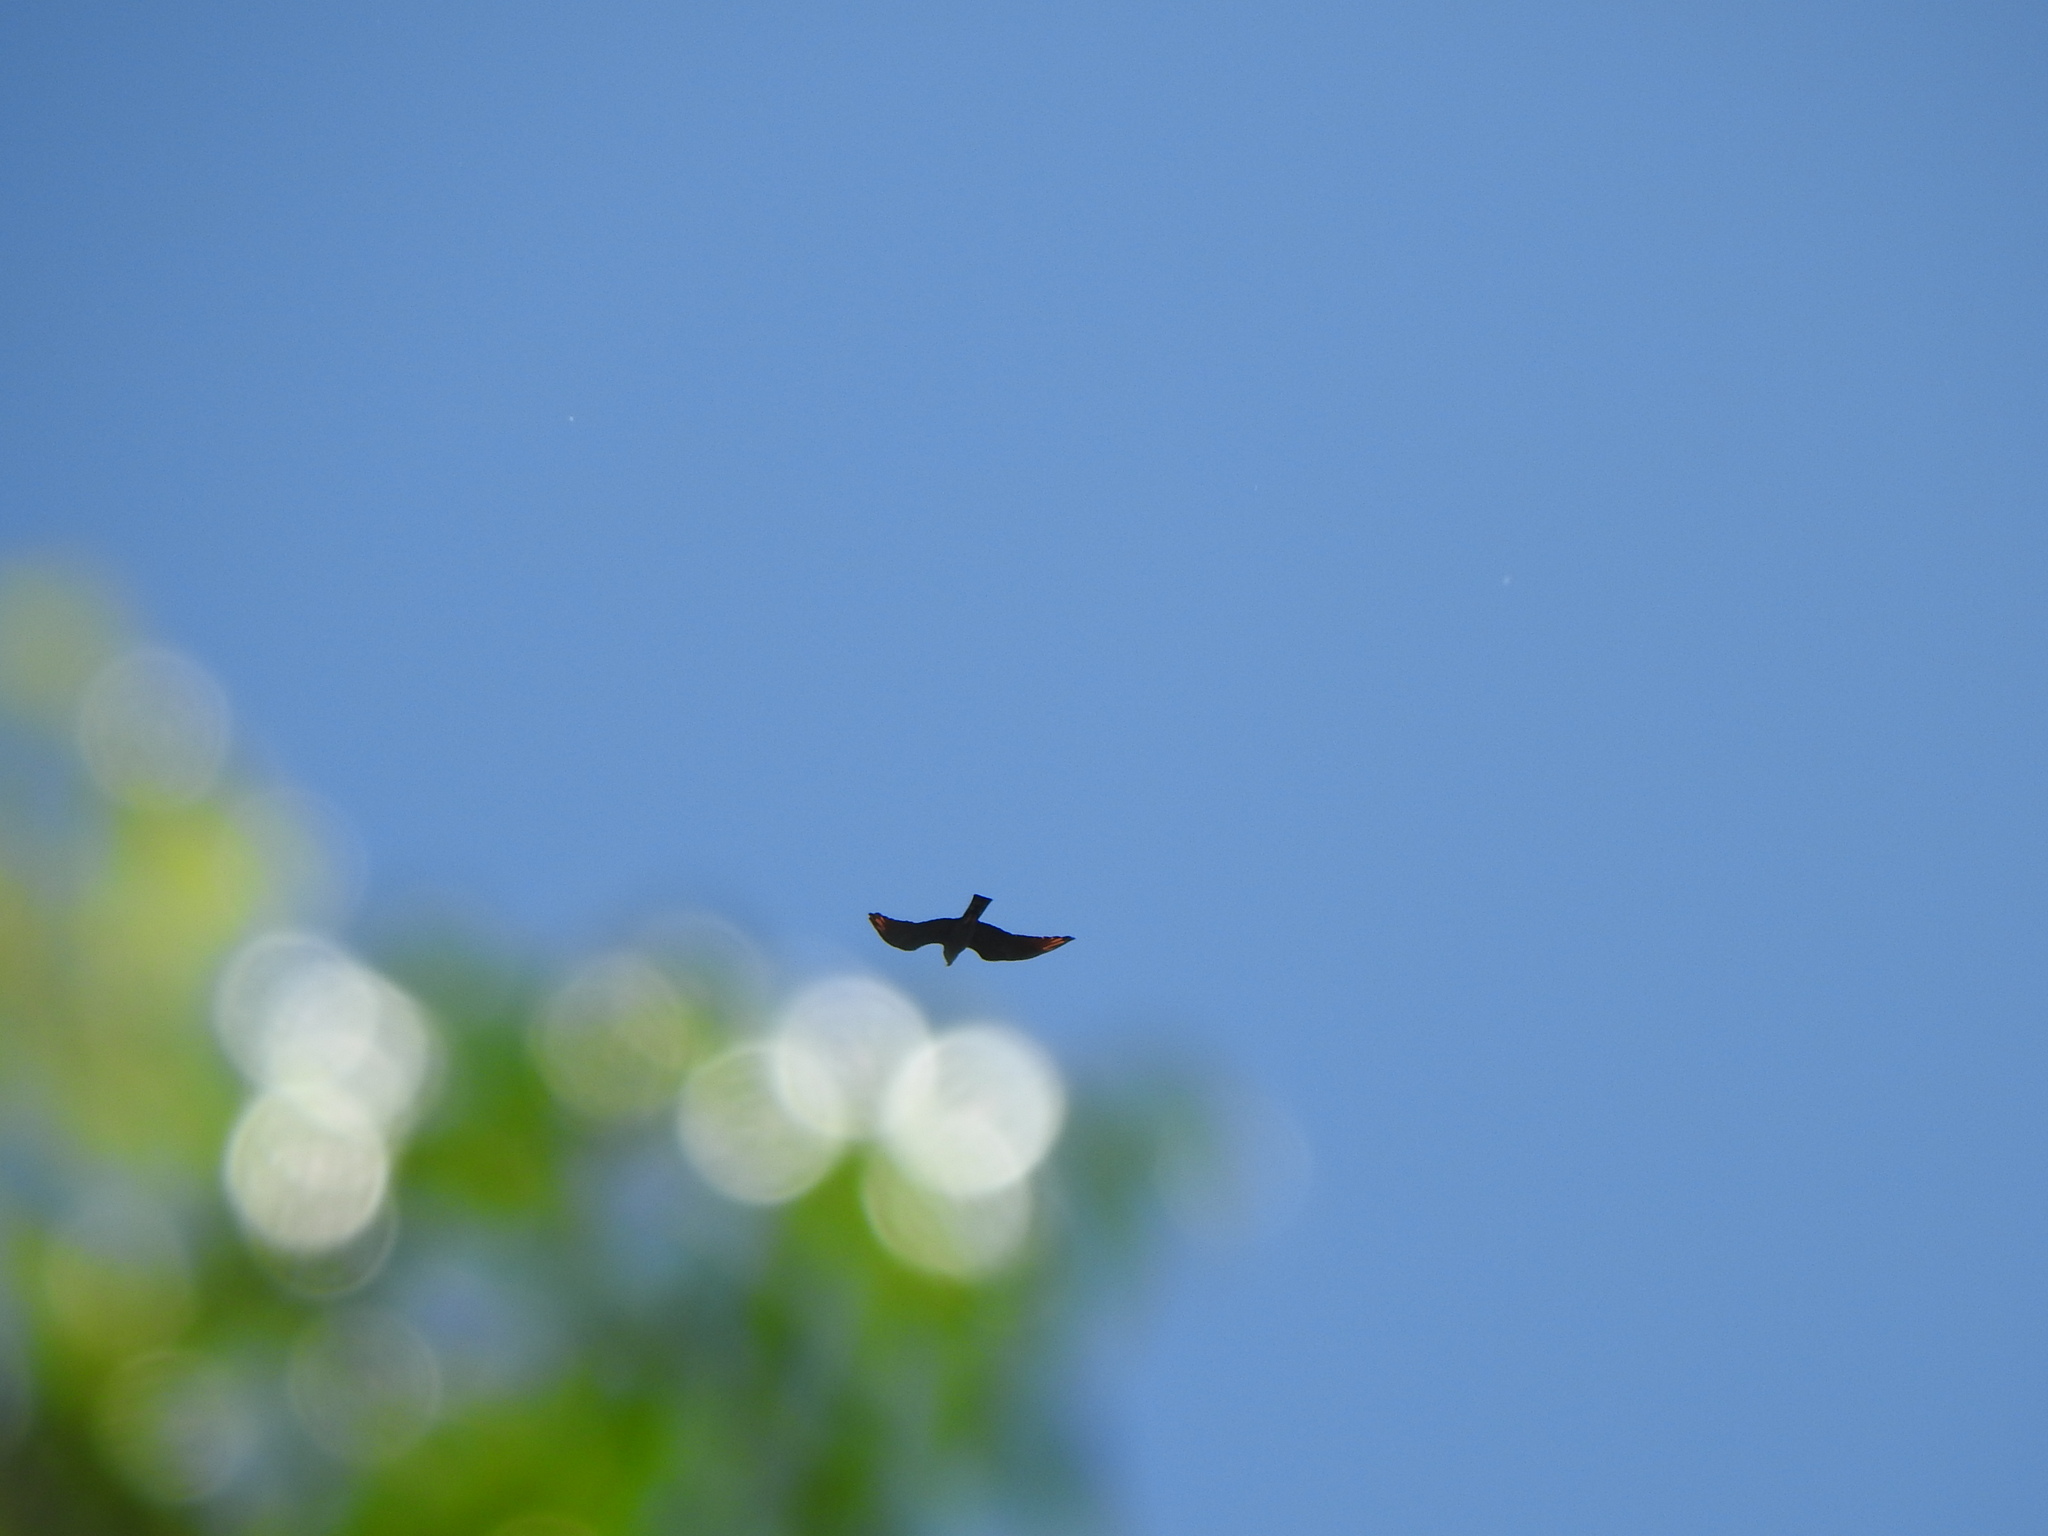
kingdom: Animalia
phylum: Chordata
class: Aves
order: Accipitriformes
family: Accipitridae
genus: Ictinia
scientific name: Ictinia plumbea
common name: Plumbeous kite
